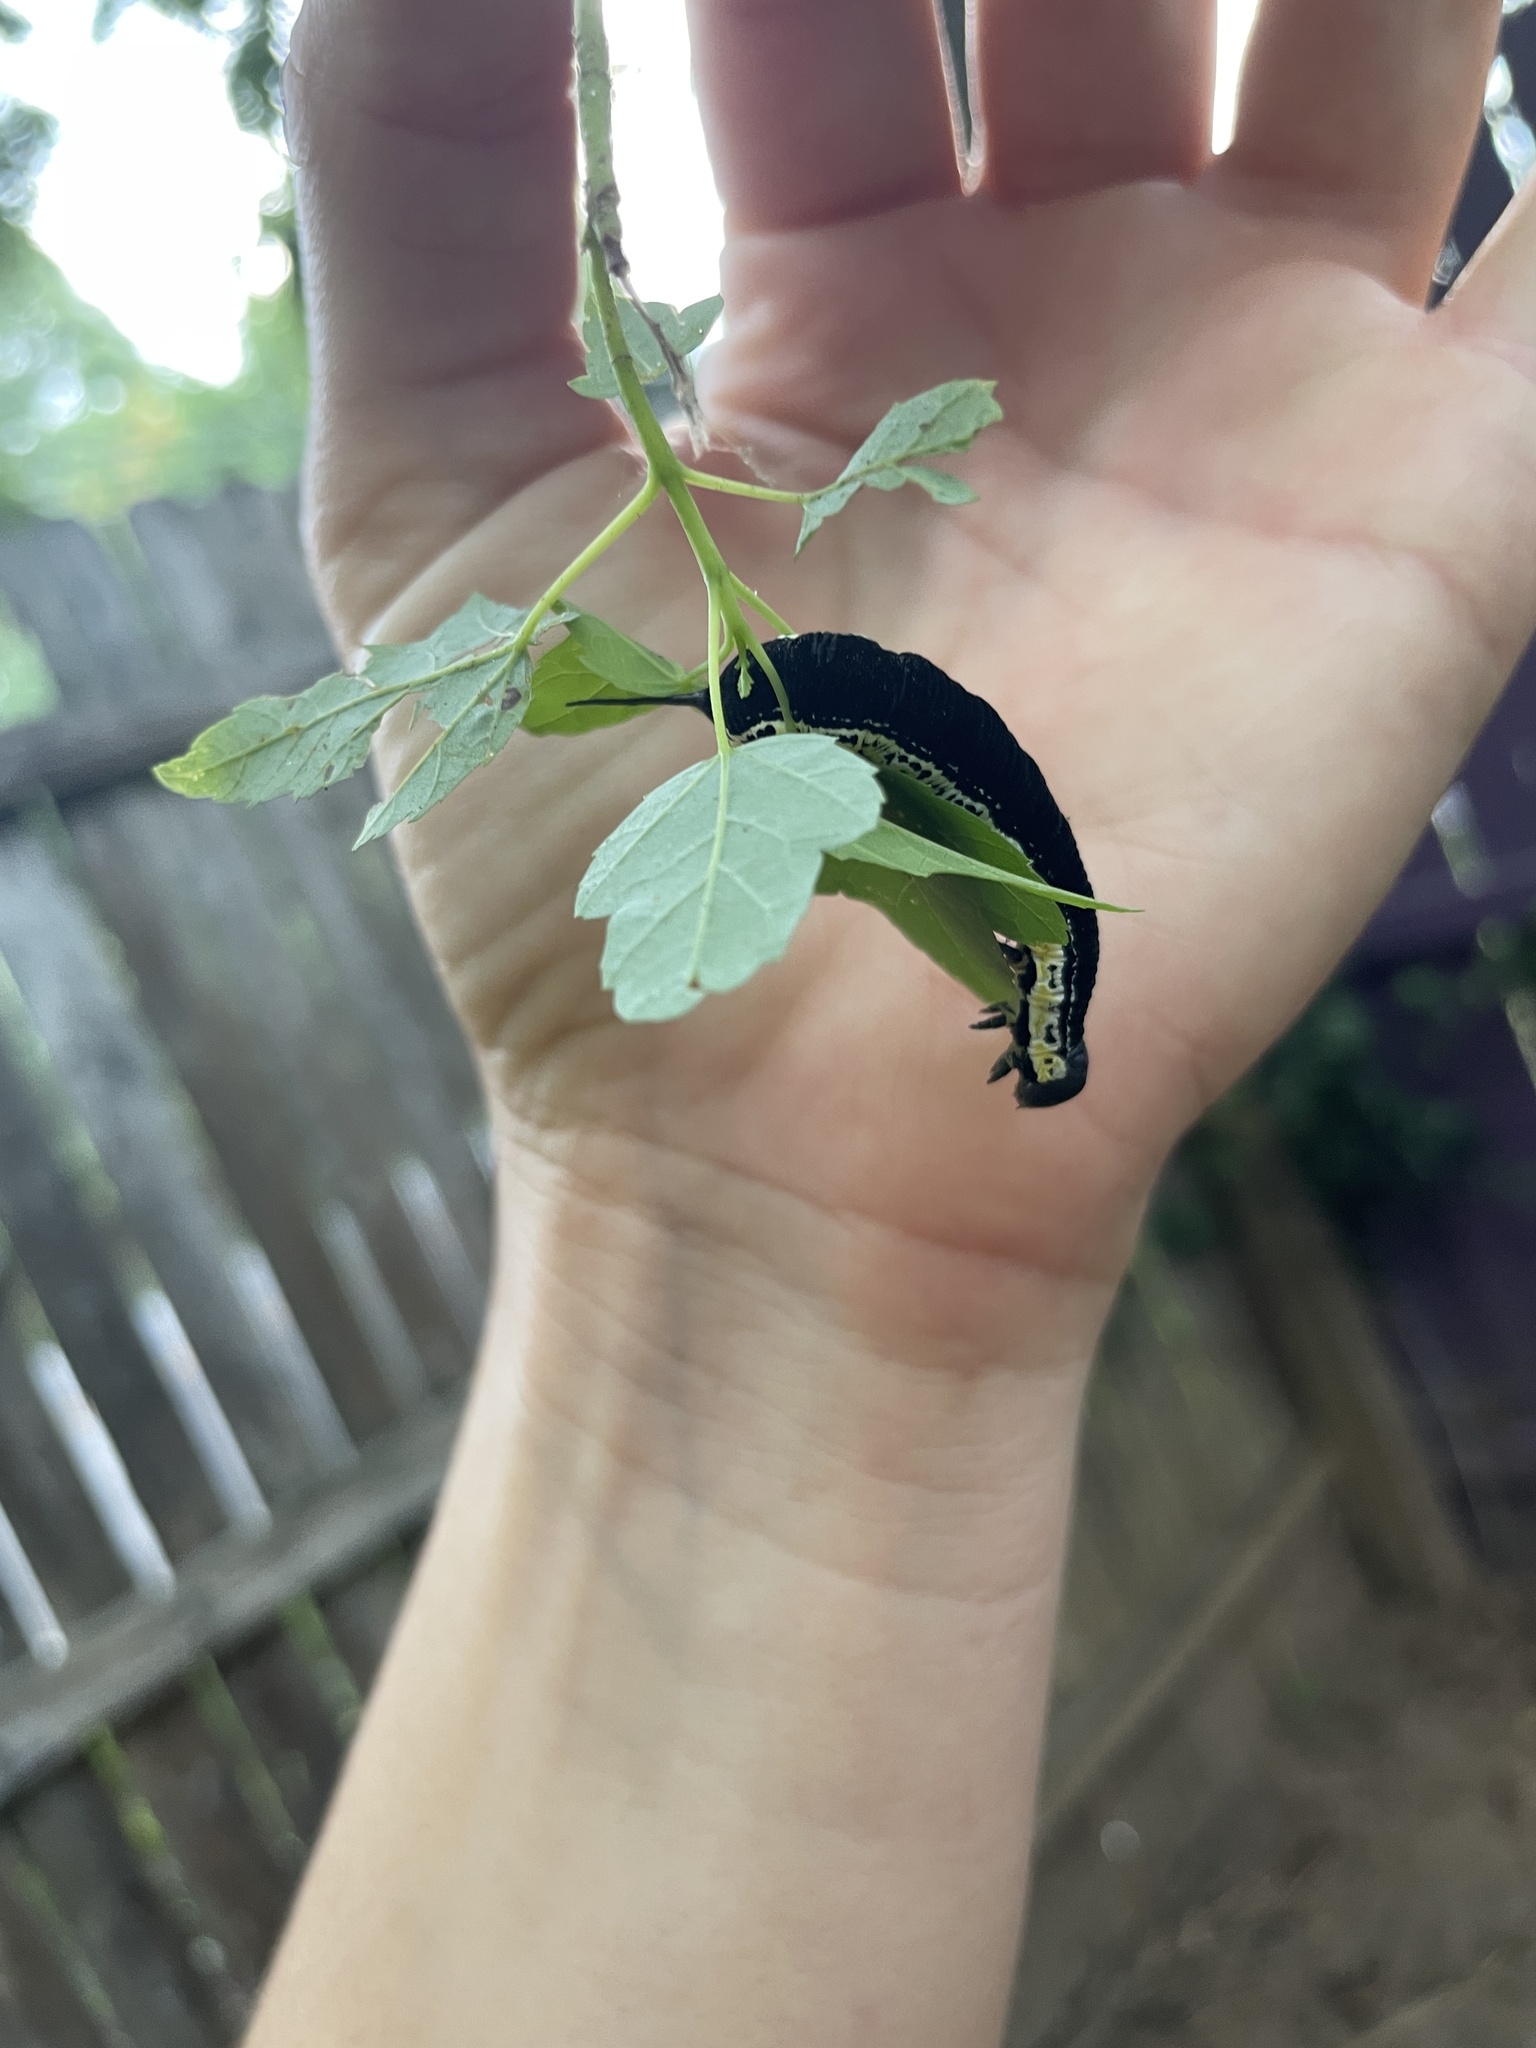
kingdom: Animalia
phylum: Arthropoda
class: Insecta
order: Lepidoptera
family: Sphingidae
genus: Ceratomia
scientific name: Ceratomia catalpae
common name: Catalpa hornworm
